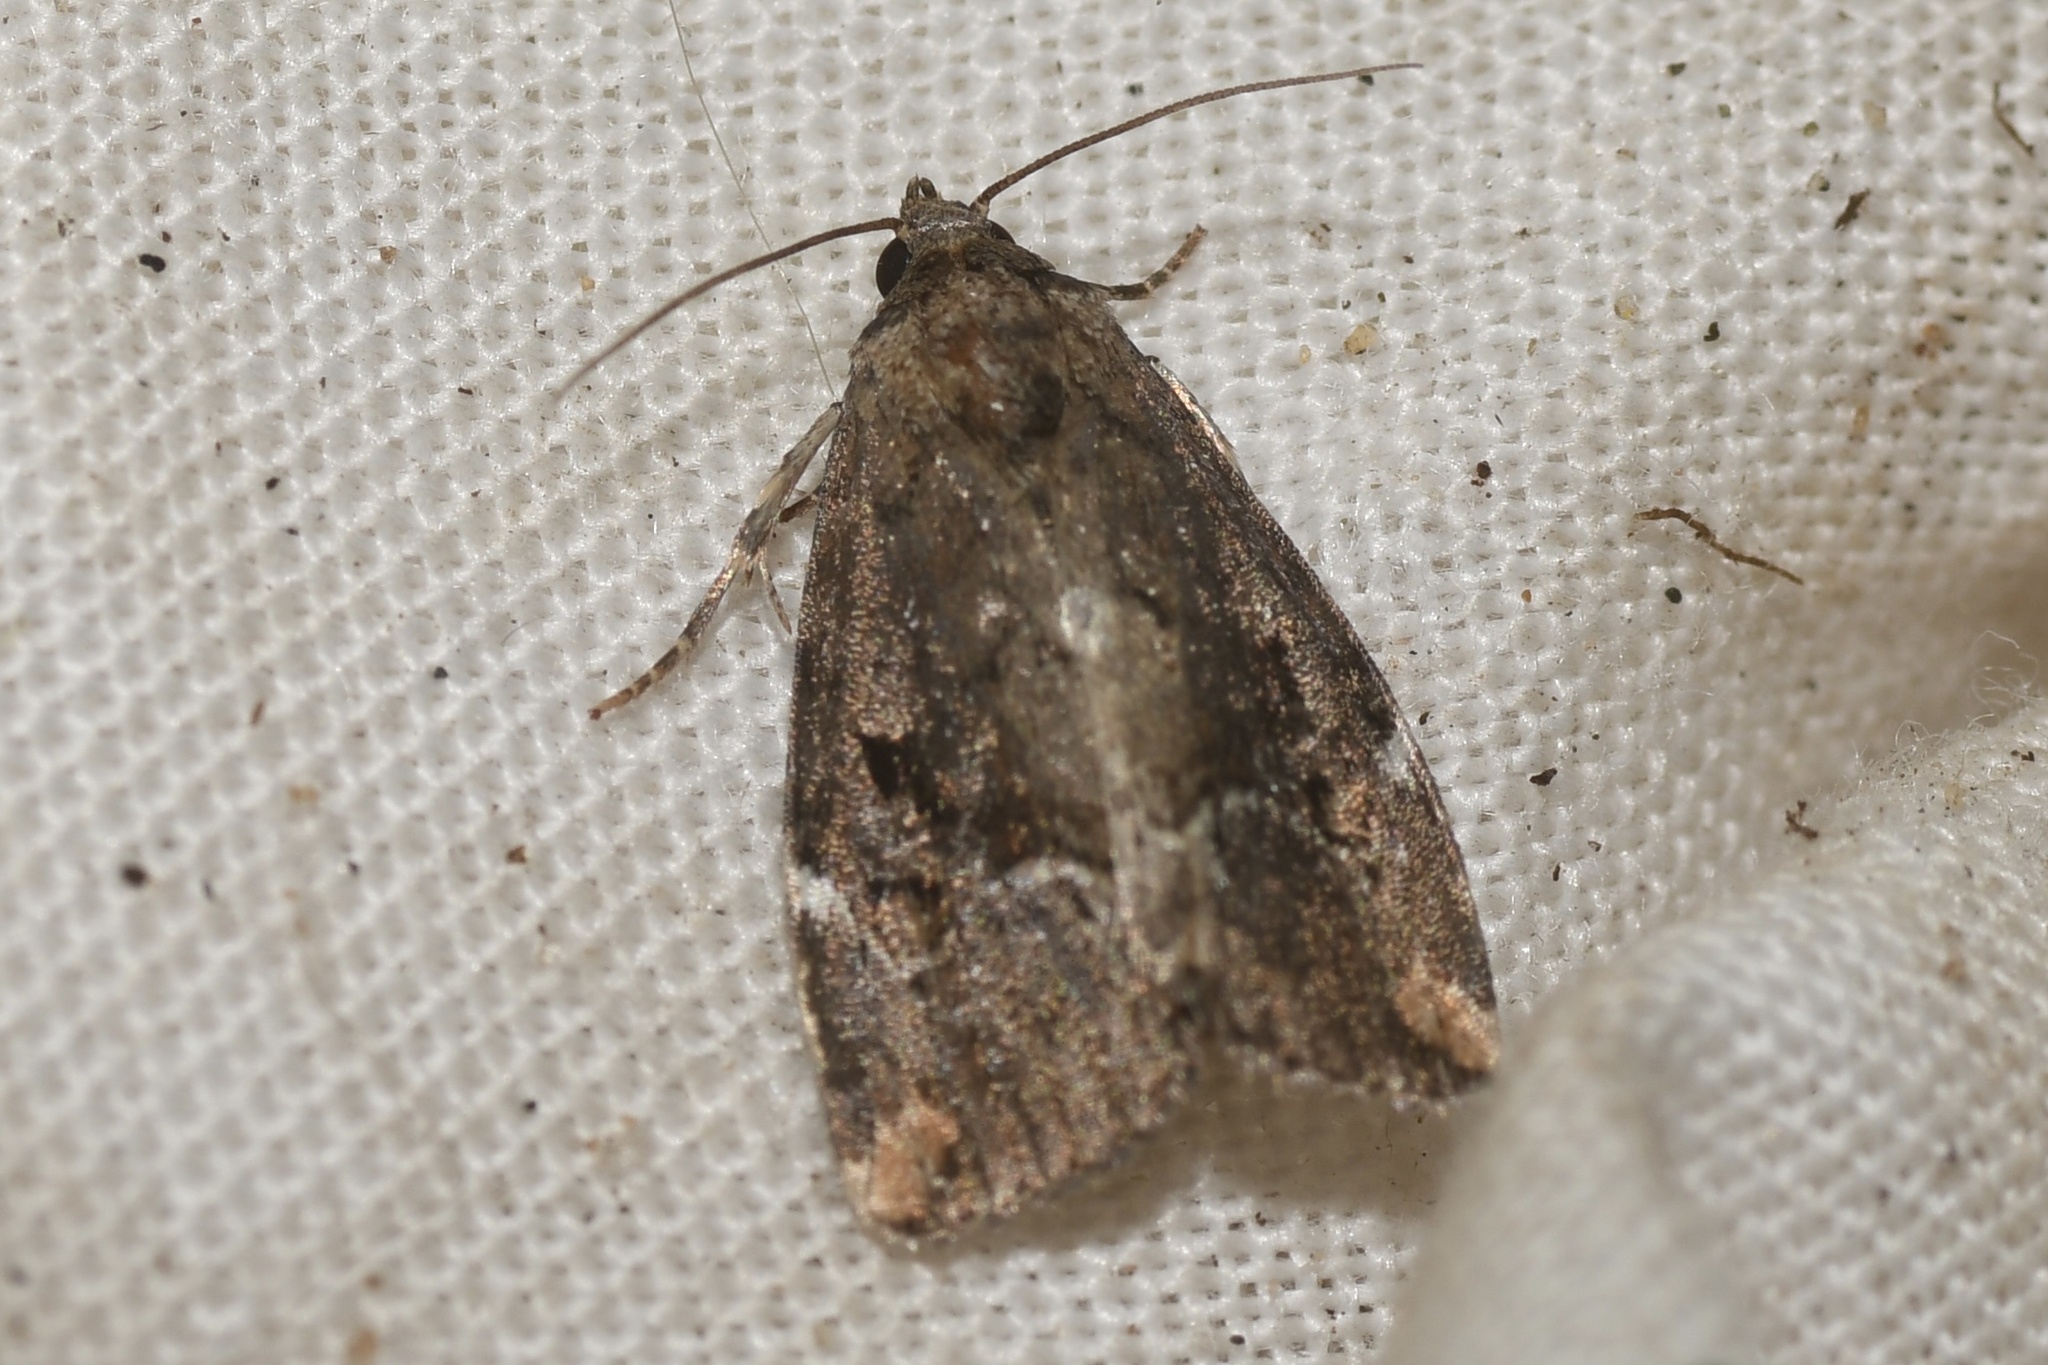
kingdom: Animalia
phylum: Arthropoda
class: Insecta
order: Lepidoptera
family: Noctuidae
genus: Elaphria
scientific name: Elaphria versicolor
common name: Fir harlequin
